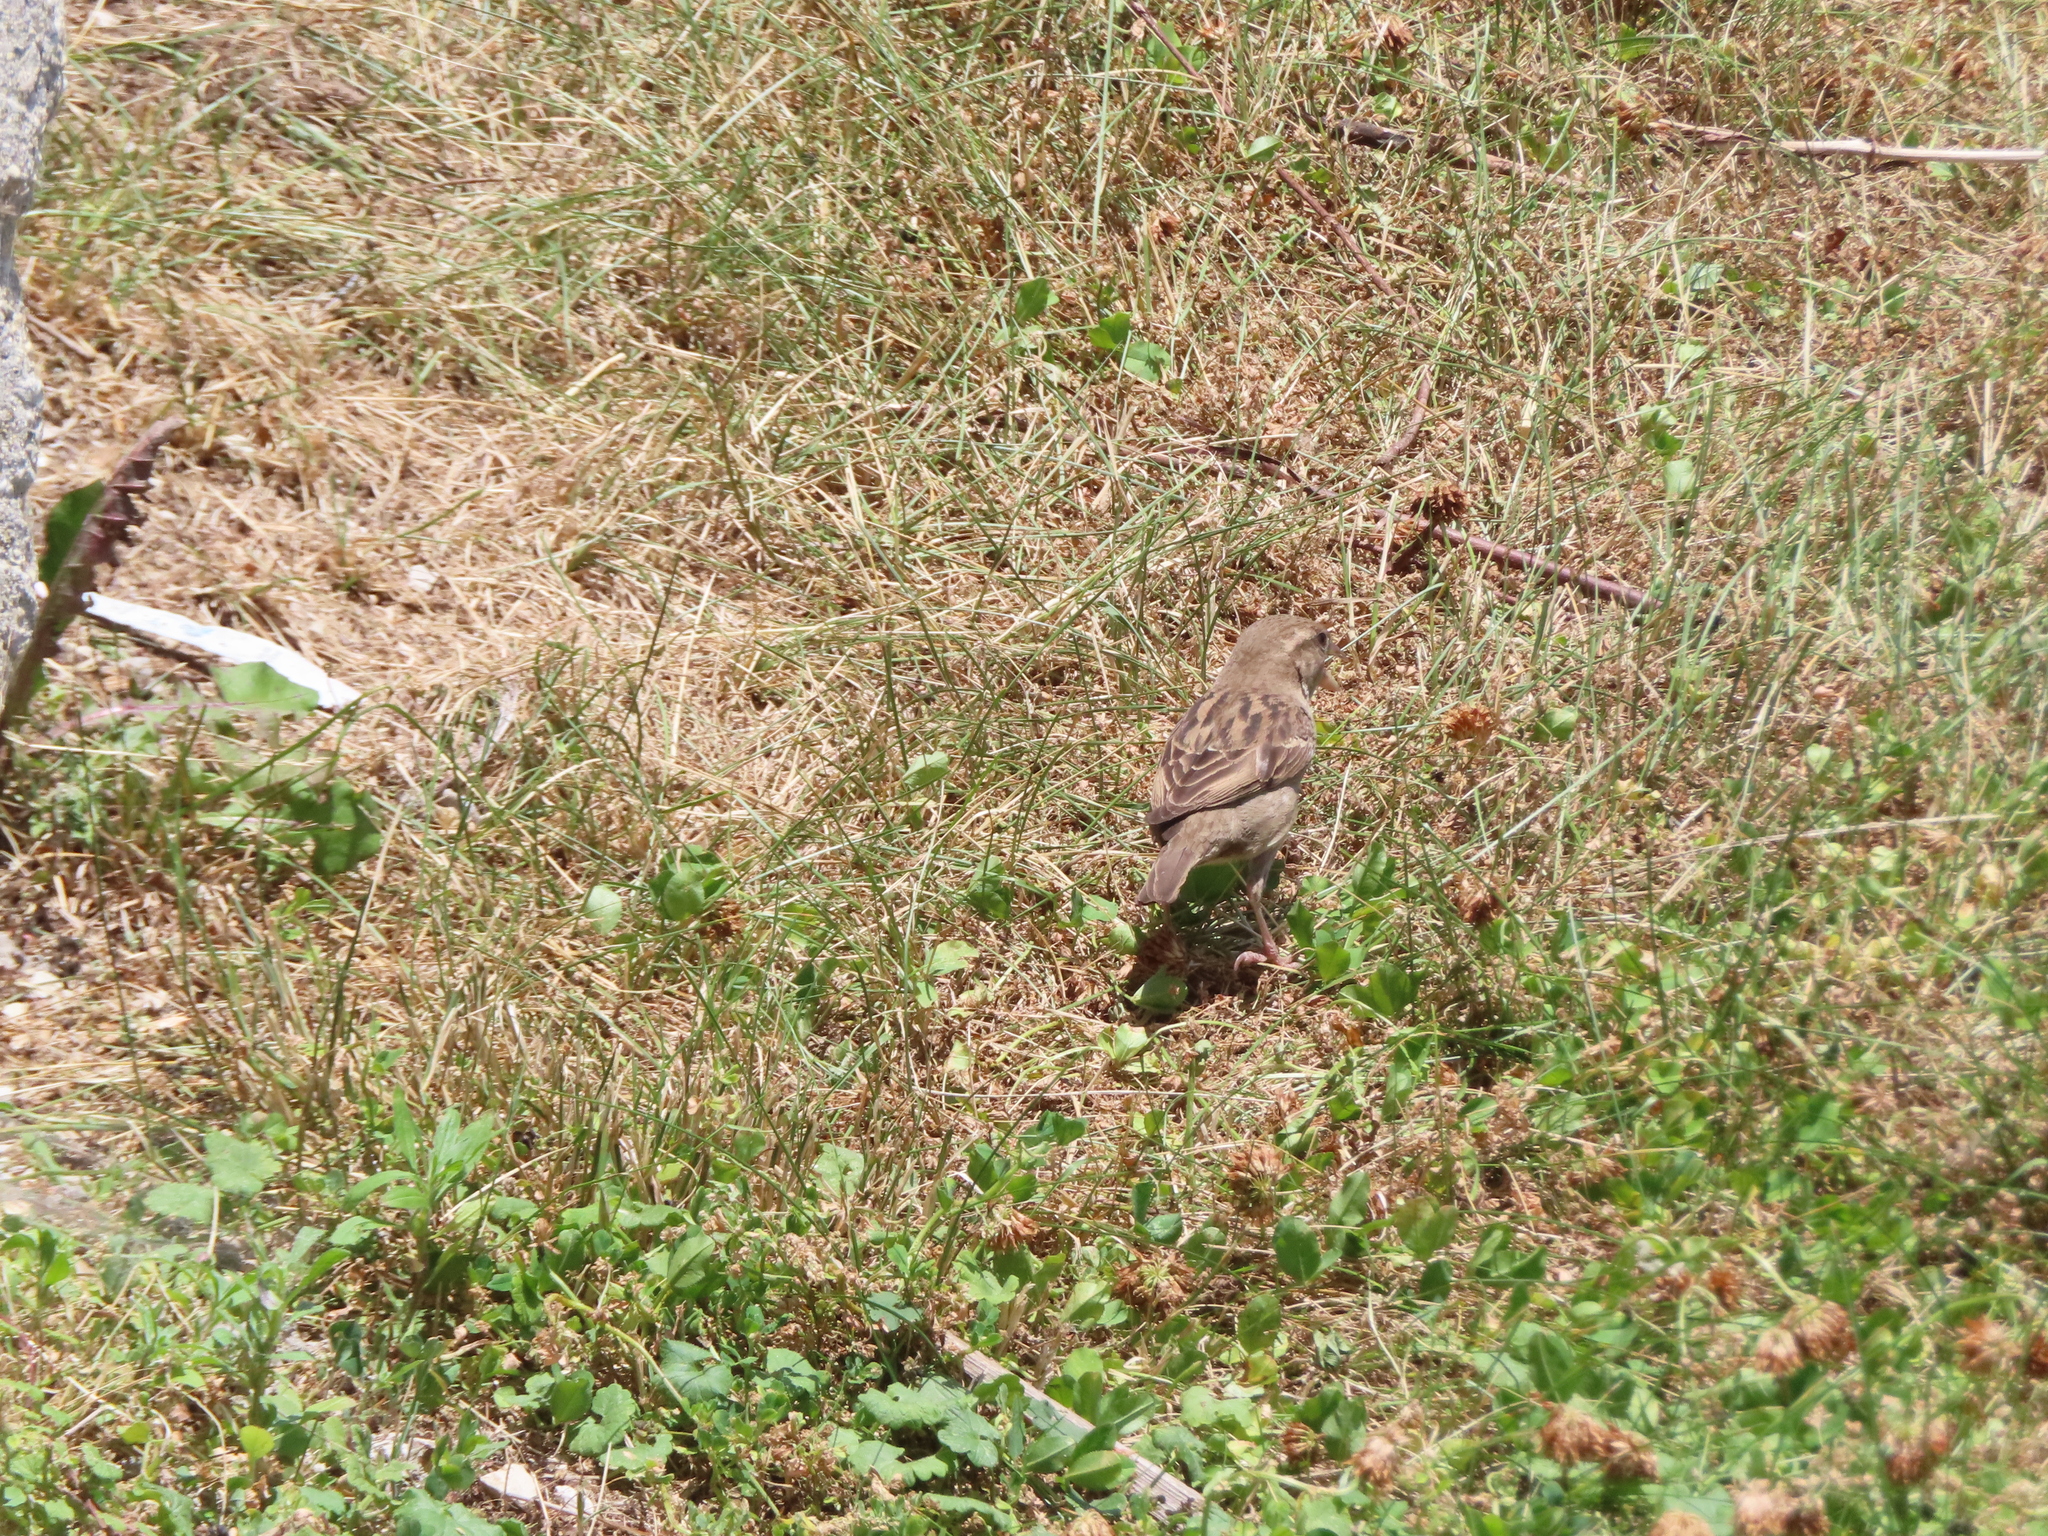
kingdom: Animalia
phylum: Chordata
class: Aves
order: Passeriformes
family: Passeridae
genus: Passer
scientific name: Passer domesticus
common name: House sparrow
